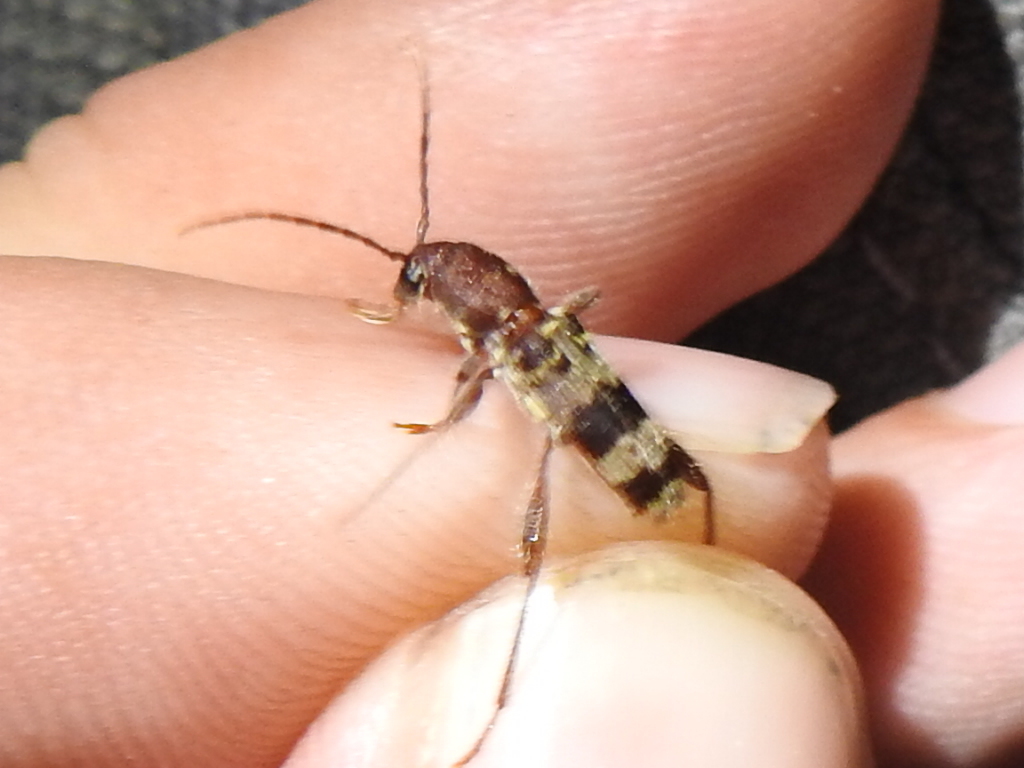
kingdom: Animalia
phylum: Arthropoda
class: Insecta
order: Coleoptera
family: Cerambycidae
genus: Xylotrechus
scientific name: Xylotrechus colonus
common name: Long-horned beetle
